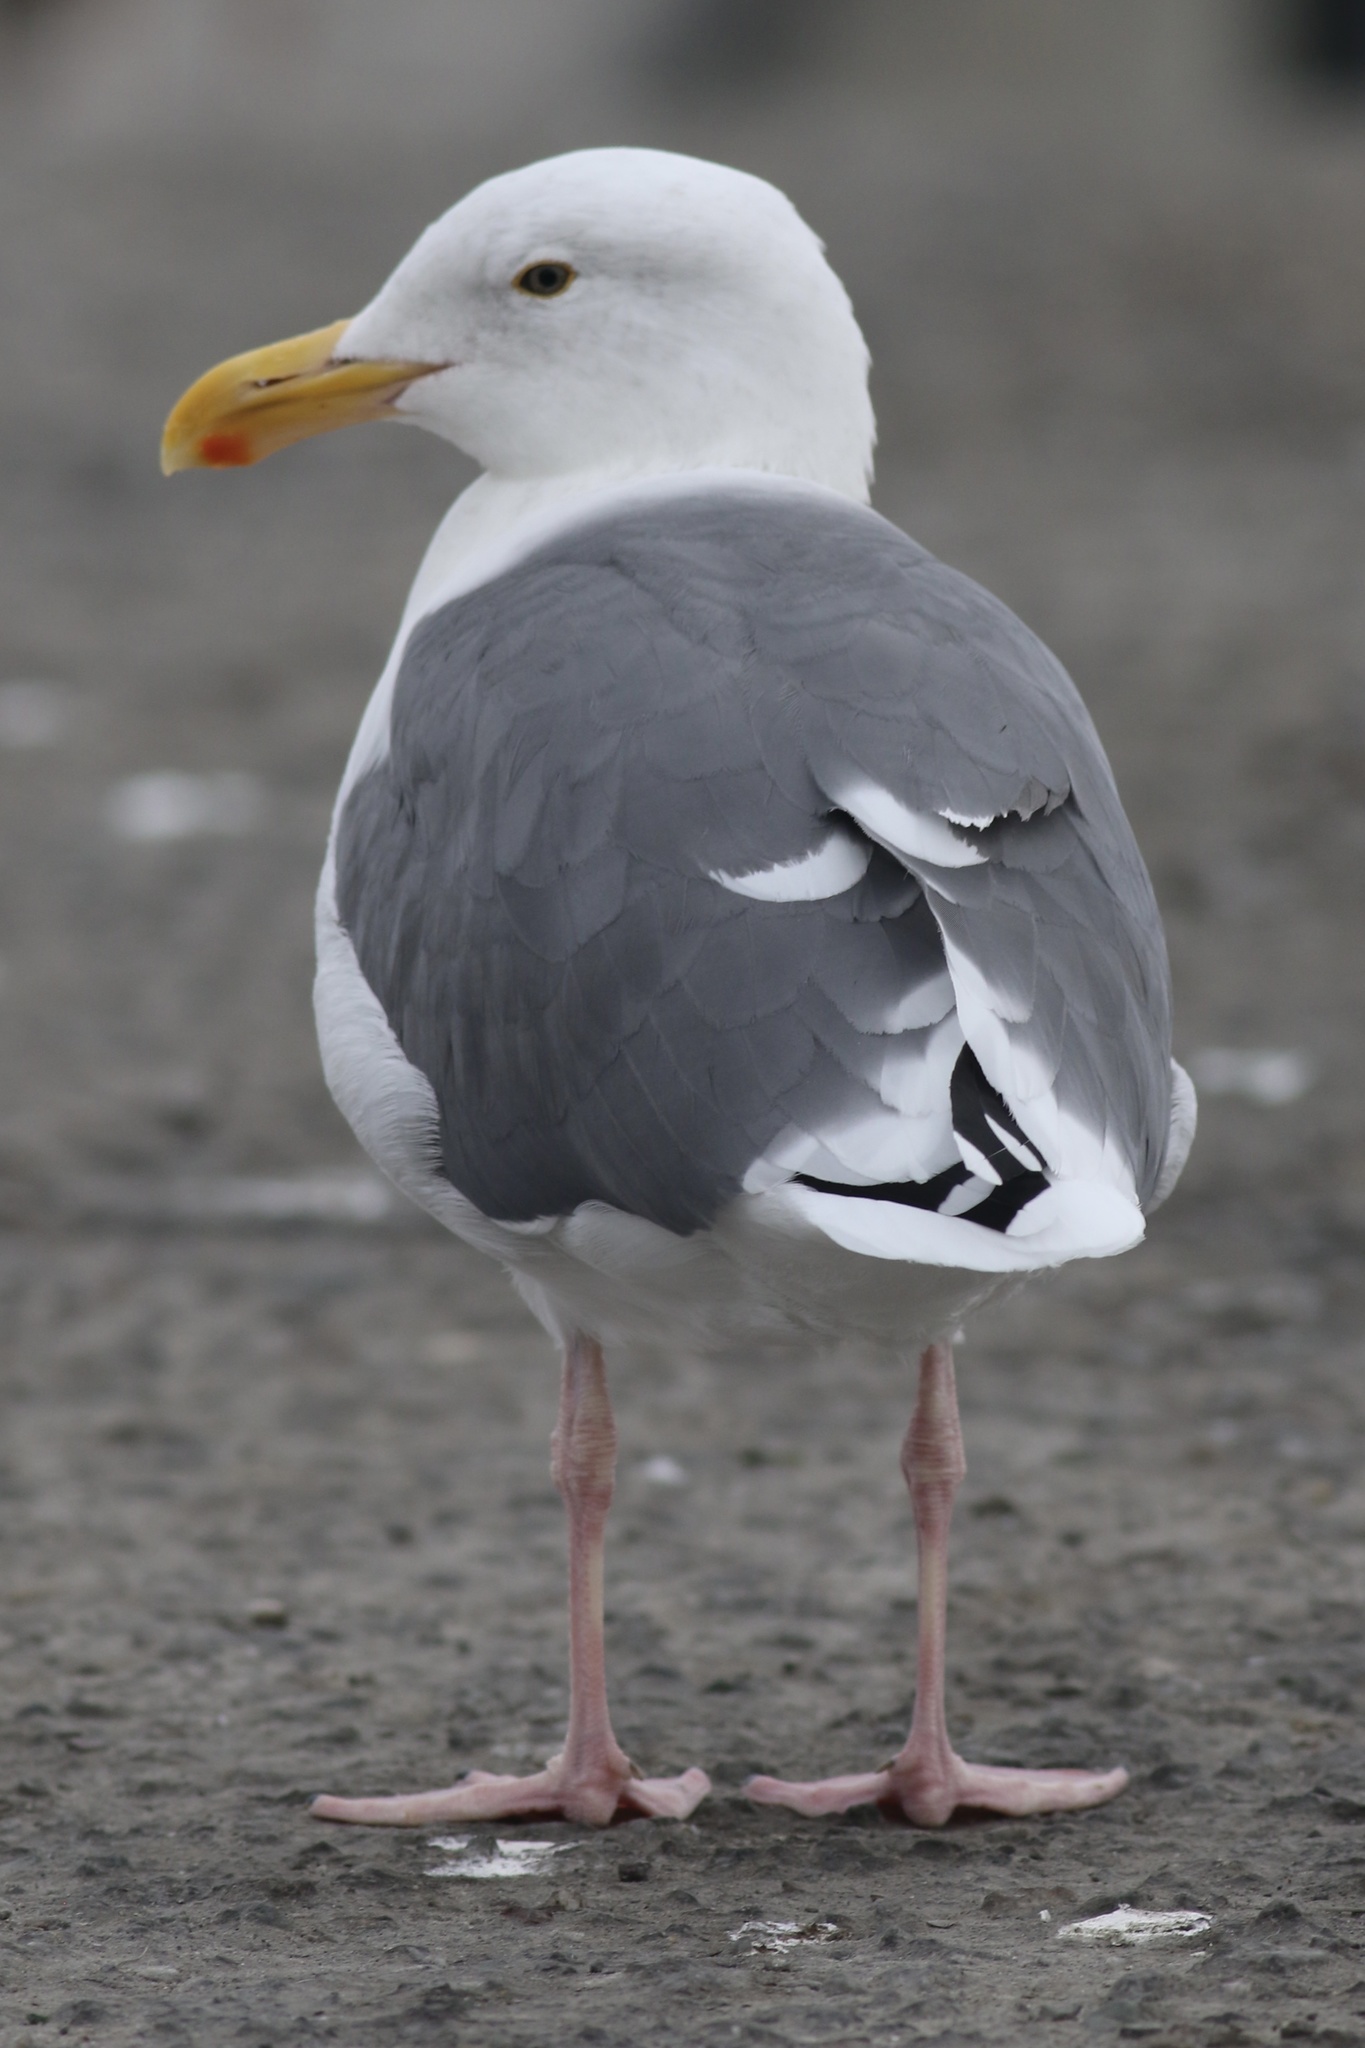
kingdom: Animalia
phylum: Chordata
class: Aves
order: Charadriiformes
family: Laridae
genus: Larus
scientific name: Larus occidentalis
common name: Western gull
